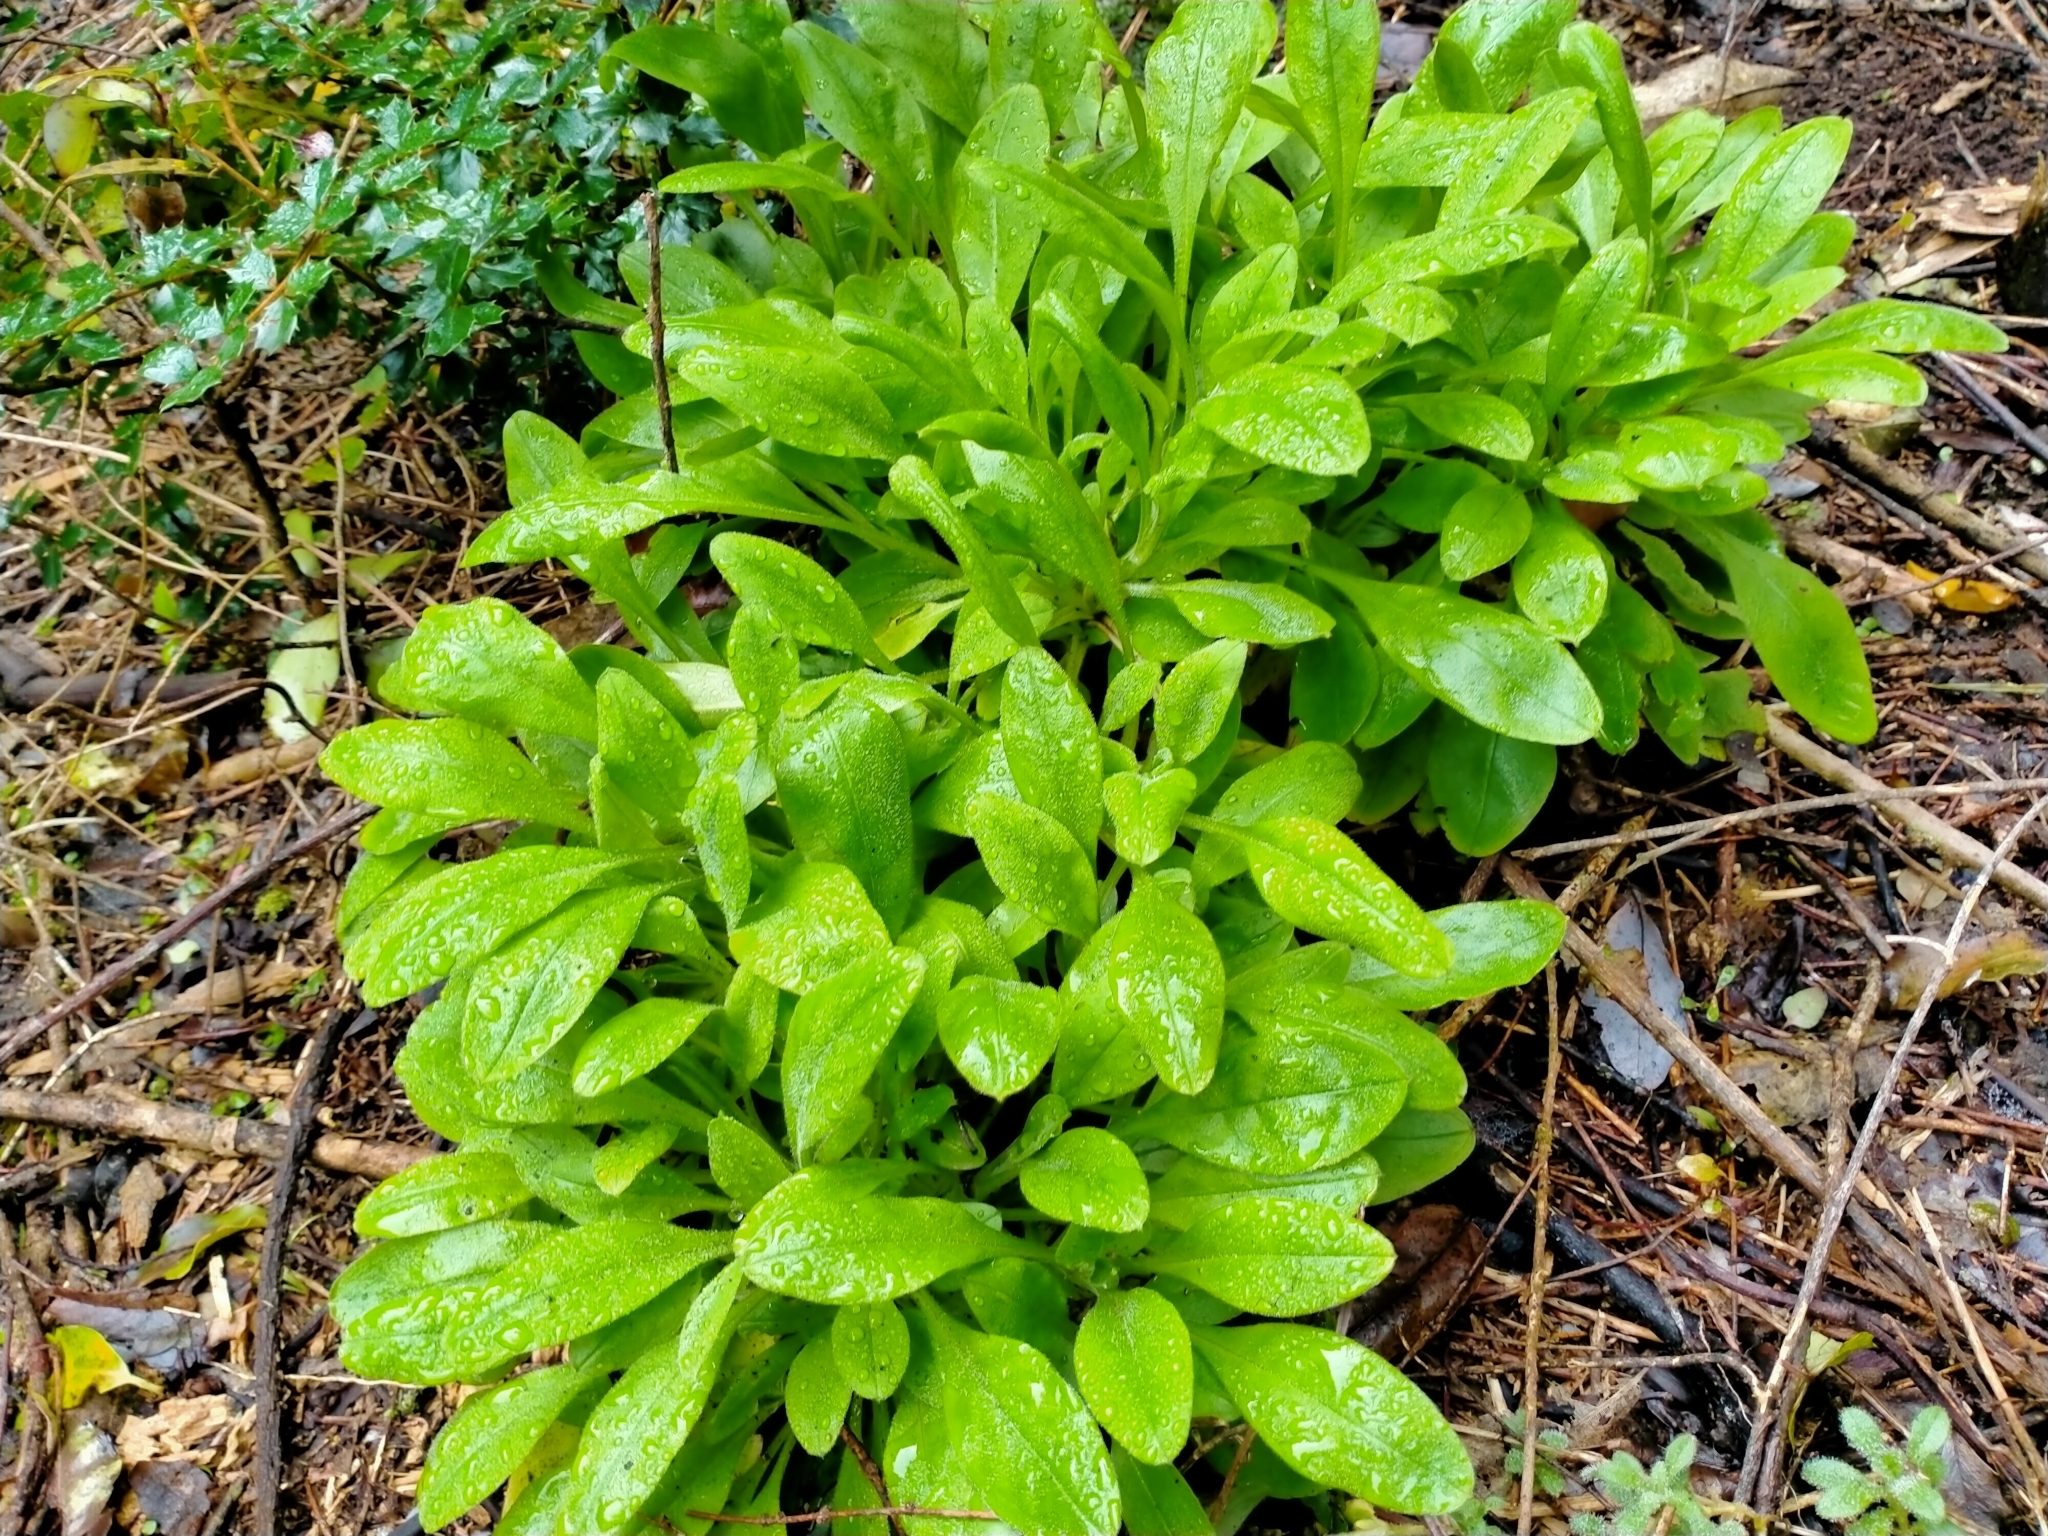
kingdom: Plantae
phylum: Tracheophyta
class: Magnoliopsida
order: Boraginales
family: Boraginaceae
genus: Myosotis
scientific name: Myosotis sylvatica
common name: Wood forget-me-not
